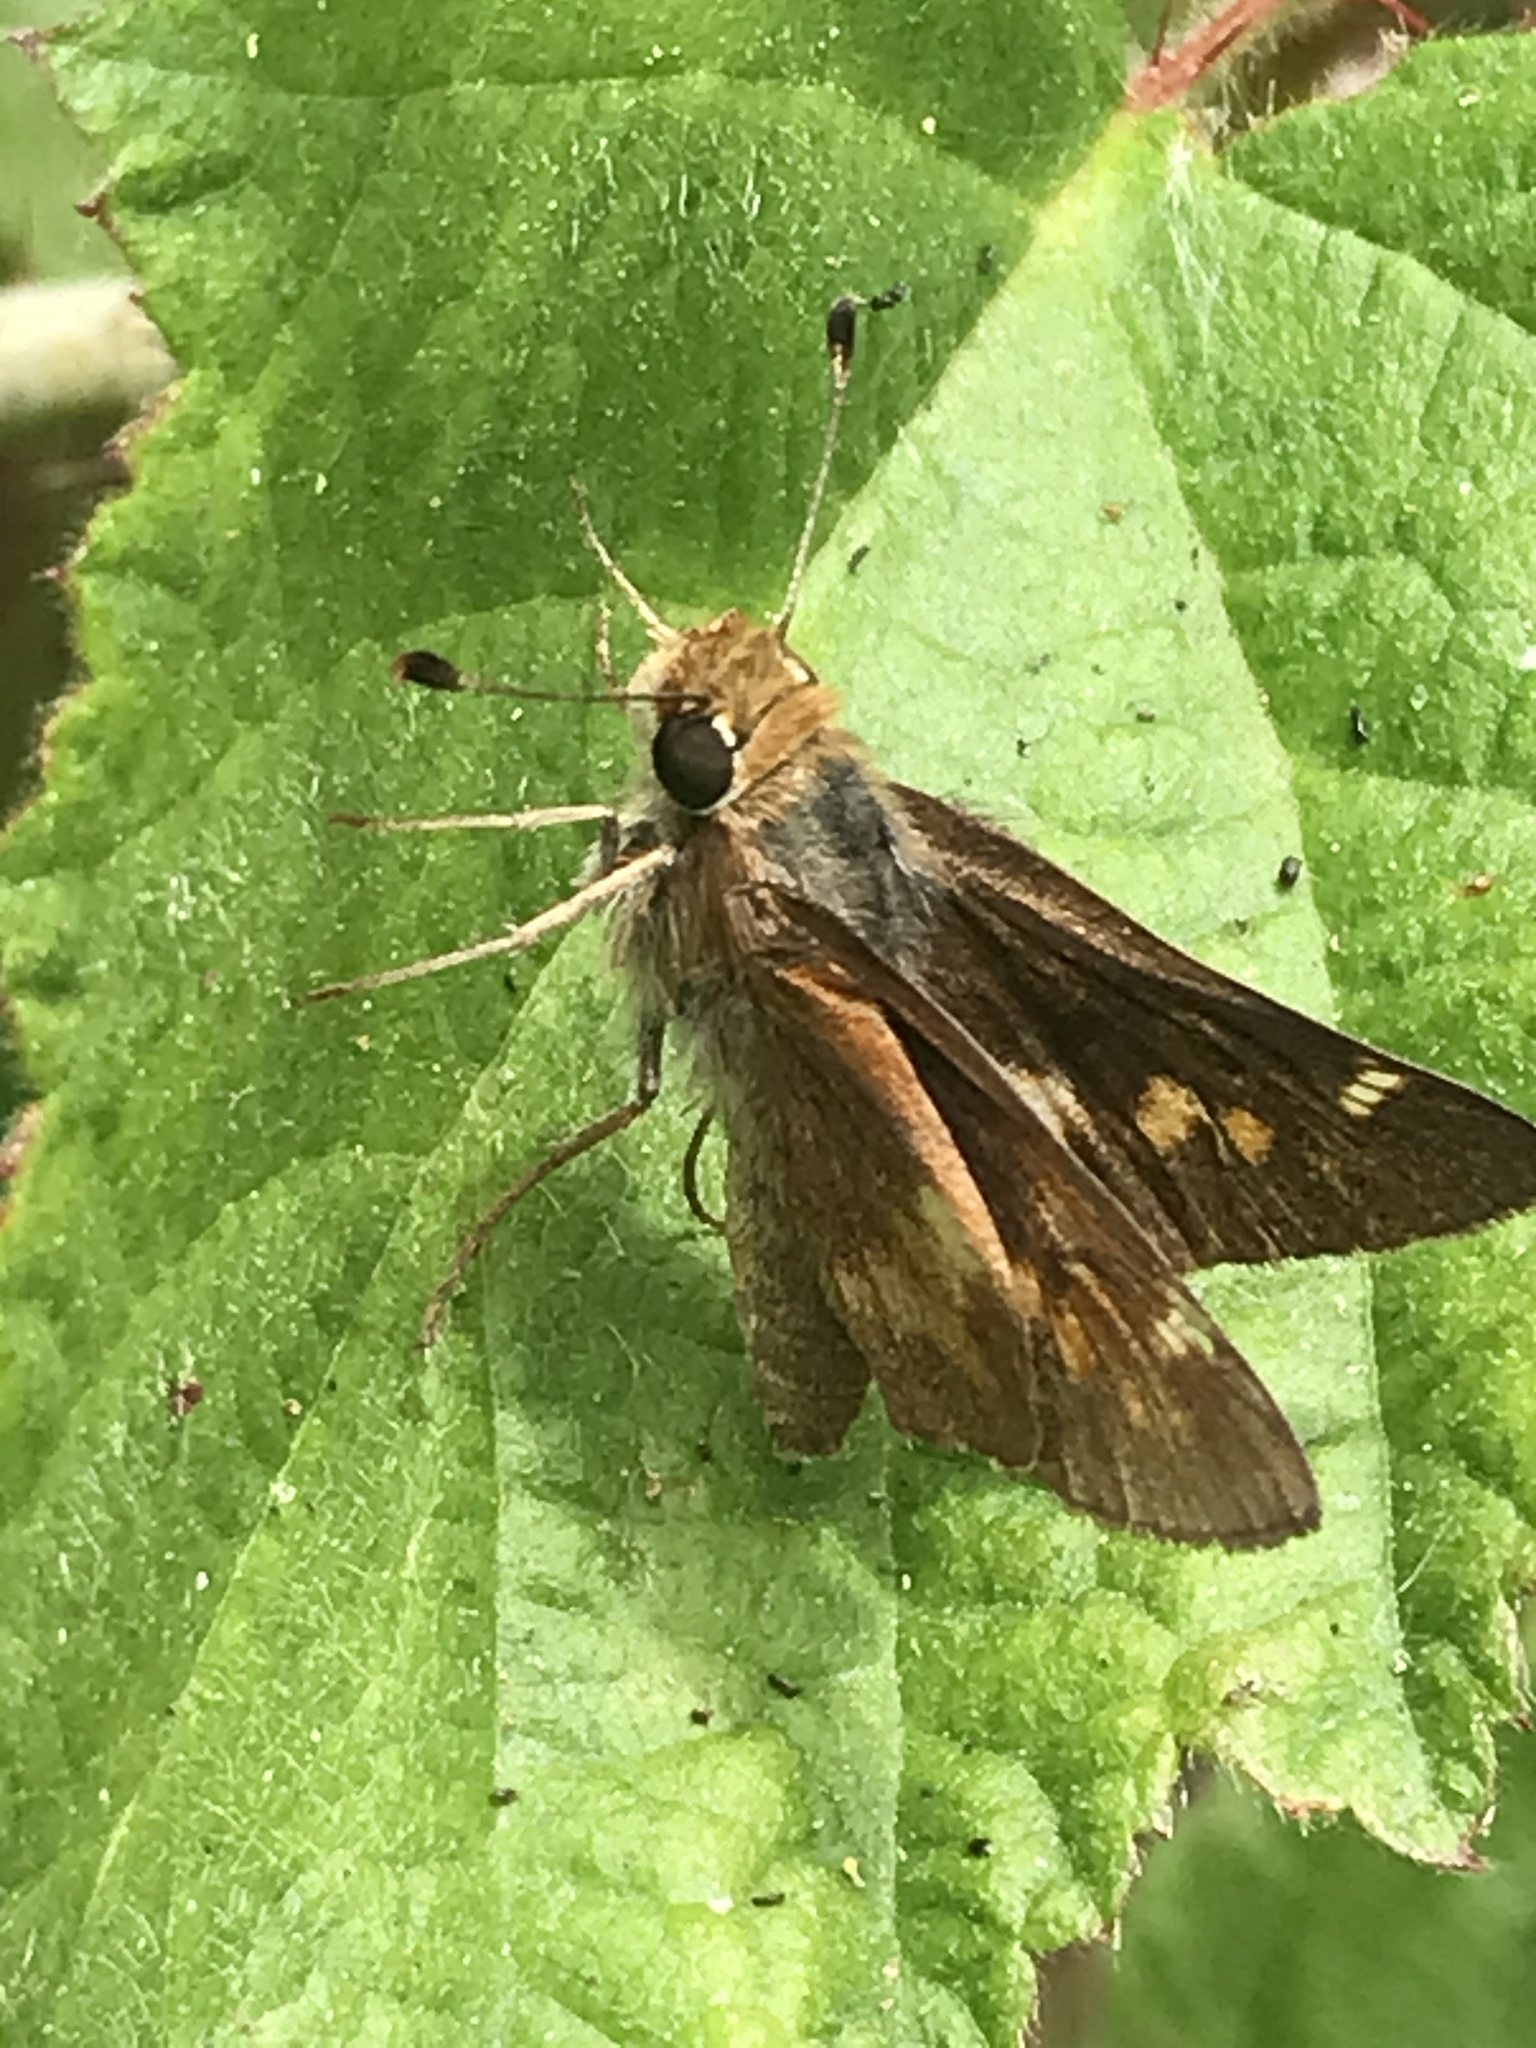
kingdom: Animalia
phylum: Arthropoda
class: Insecta
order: Lepidoptera
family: Hesperiidae
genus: Lon
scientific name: Lon melane
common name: Umber skipper
